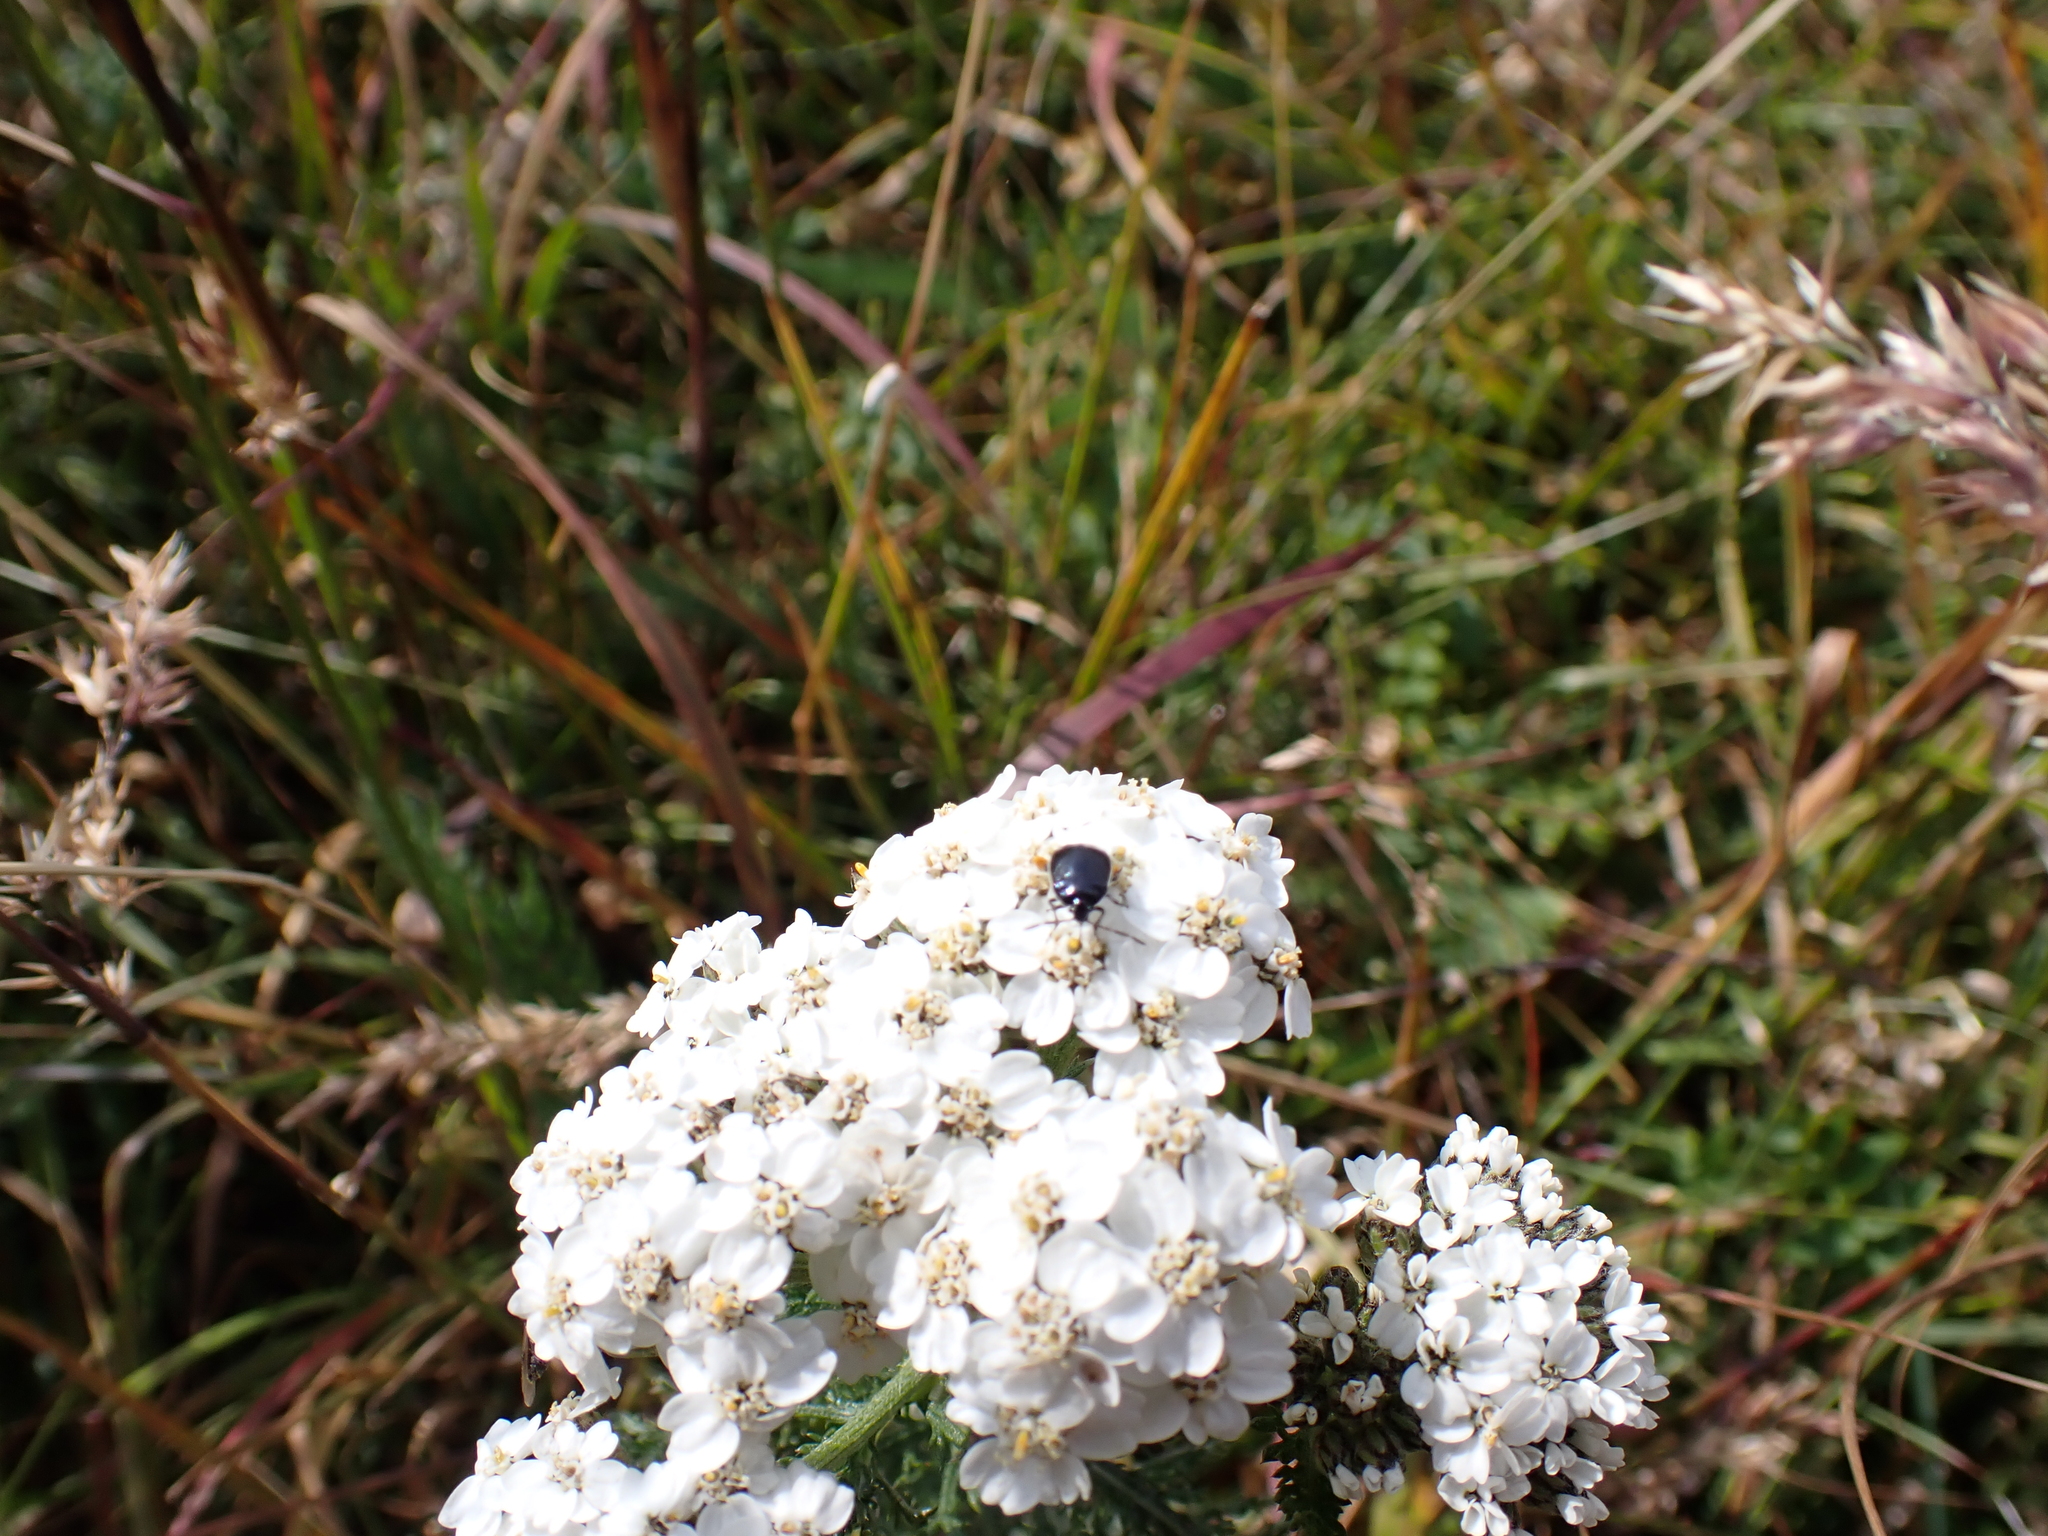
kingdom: Plantae
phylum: Tracheophyta
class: Magnoliopsida
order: Asterales
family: Asteraceae
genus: Achillea
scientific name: Achillea millefolium
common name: Yarrow
